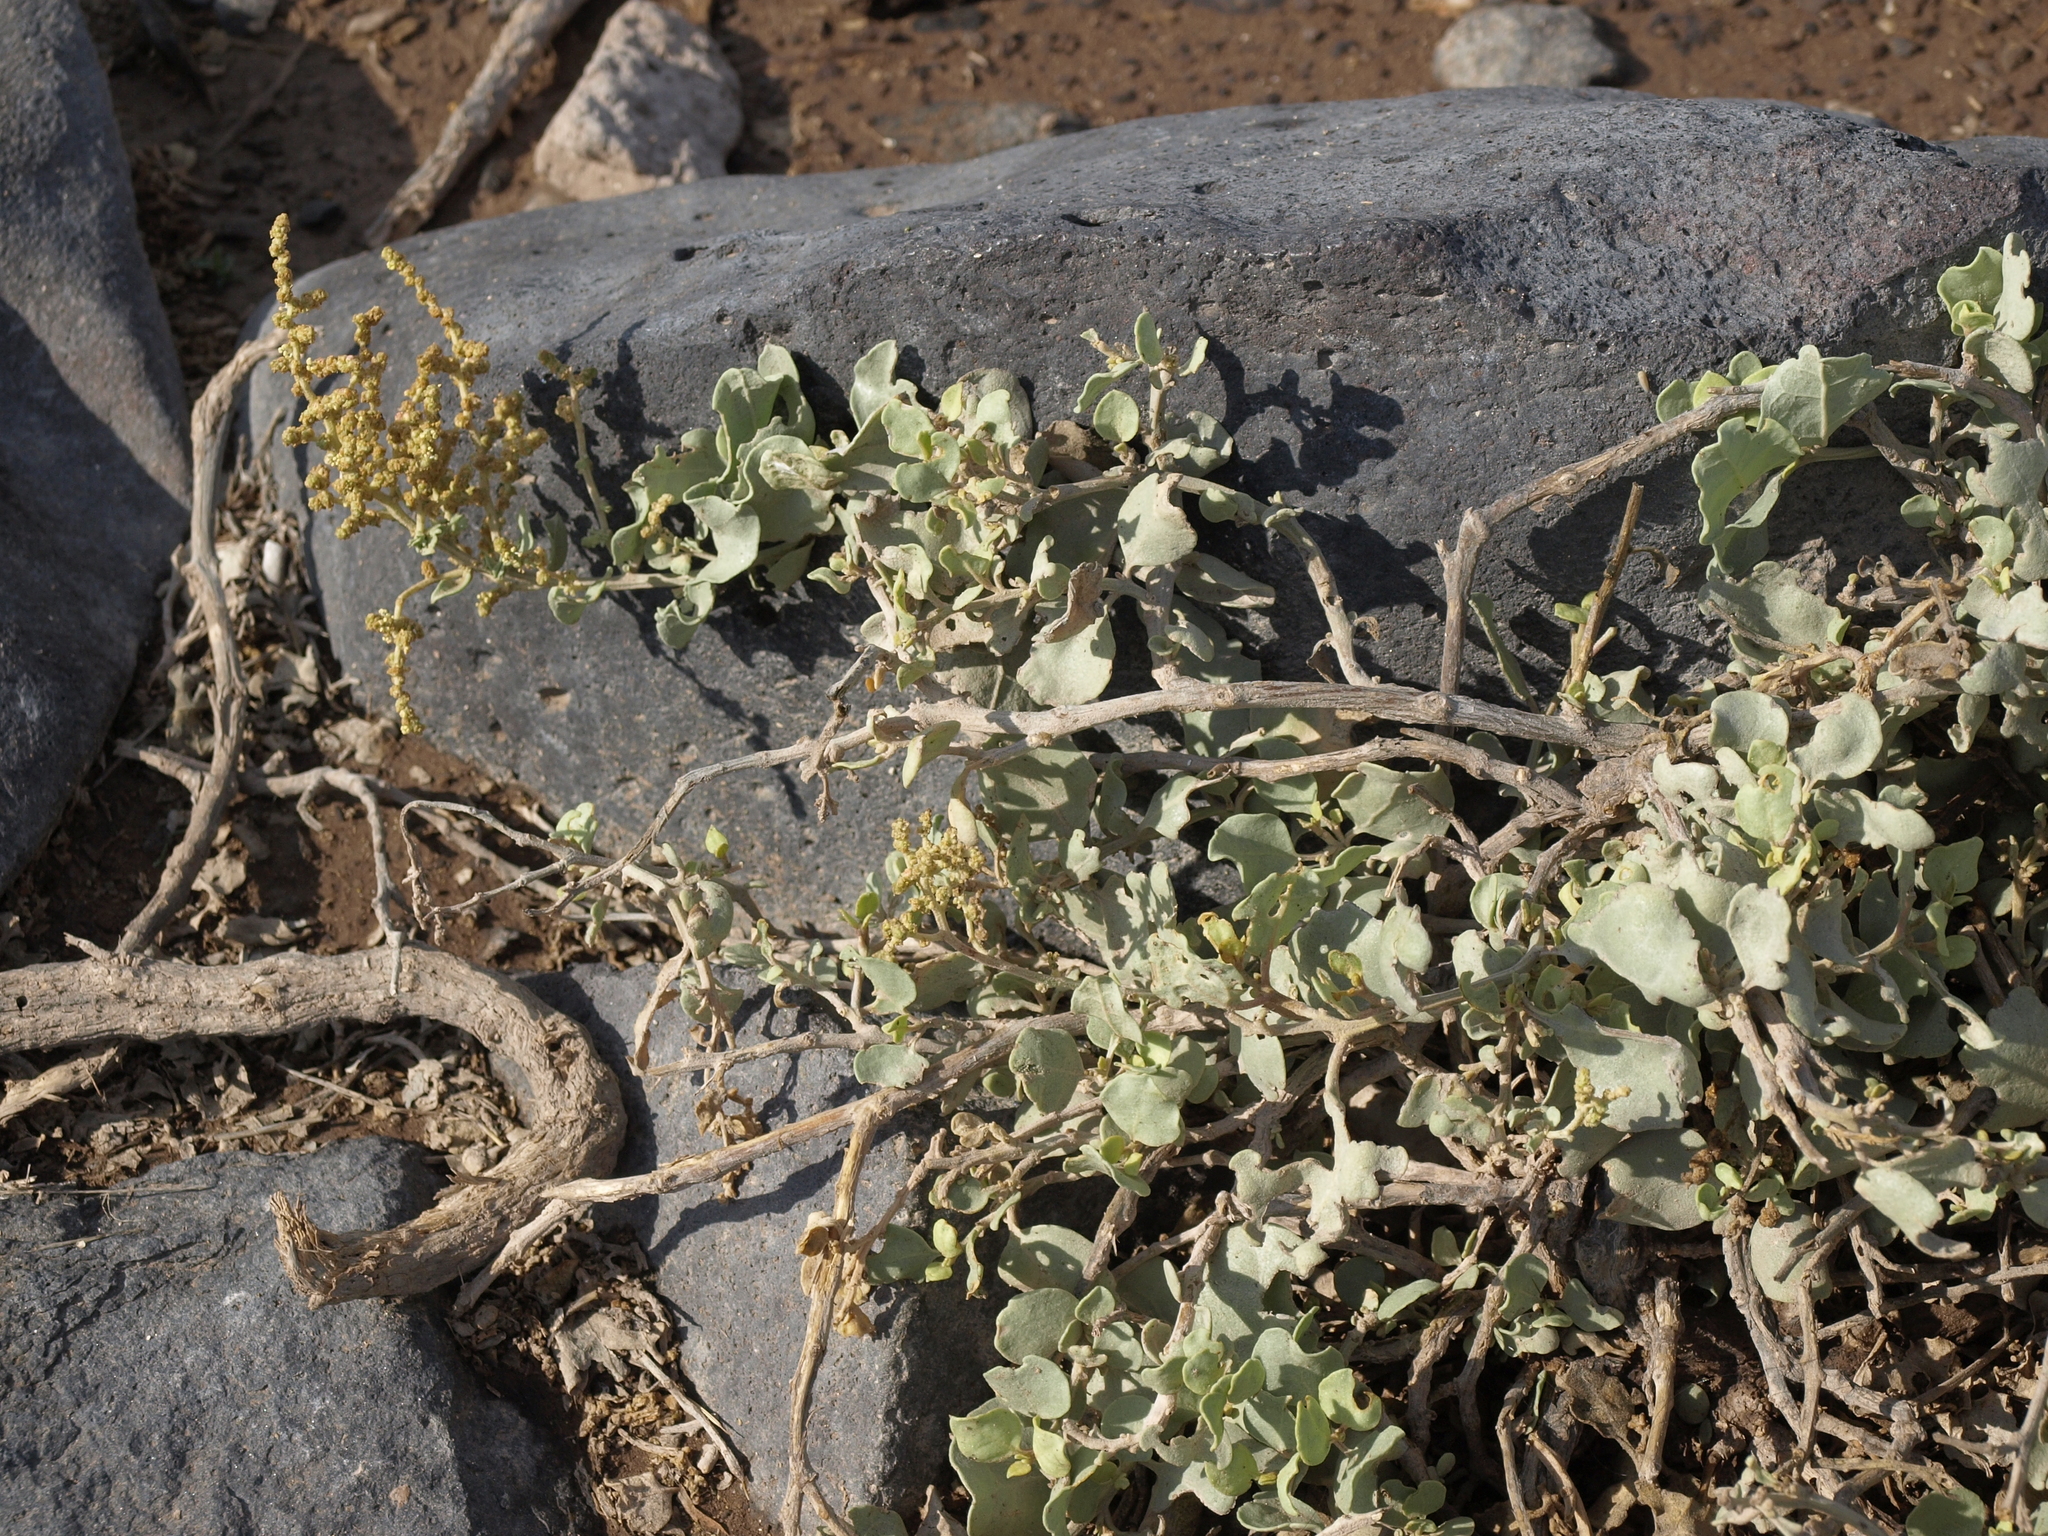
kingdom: Plantae
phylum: Tracheophyta
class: Magnoliopsida
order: Caryophyllales
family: Amaranthaceae
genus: Atriplex
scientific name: Atriplex peruviana
